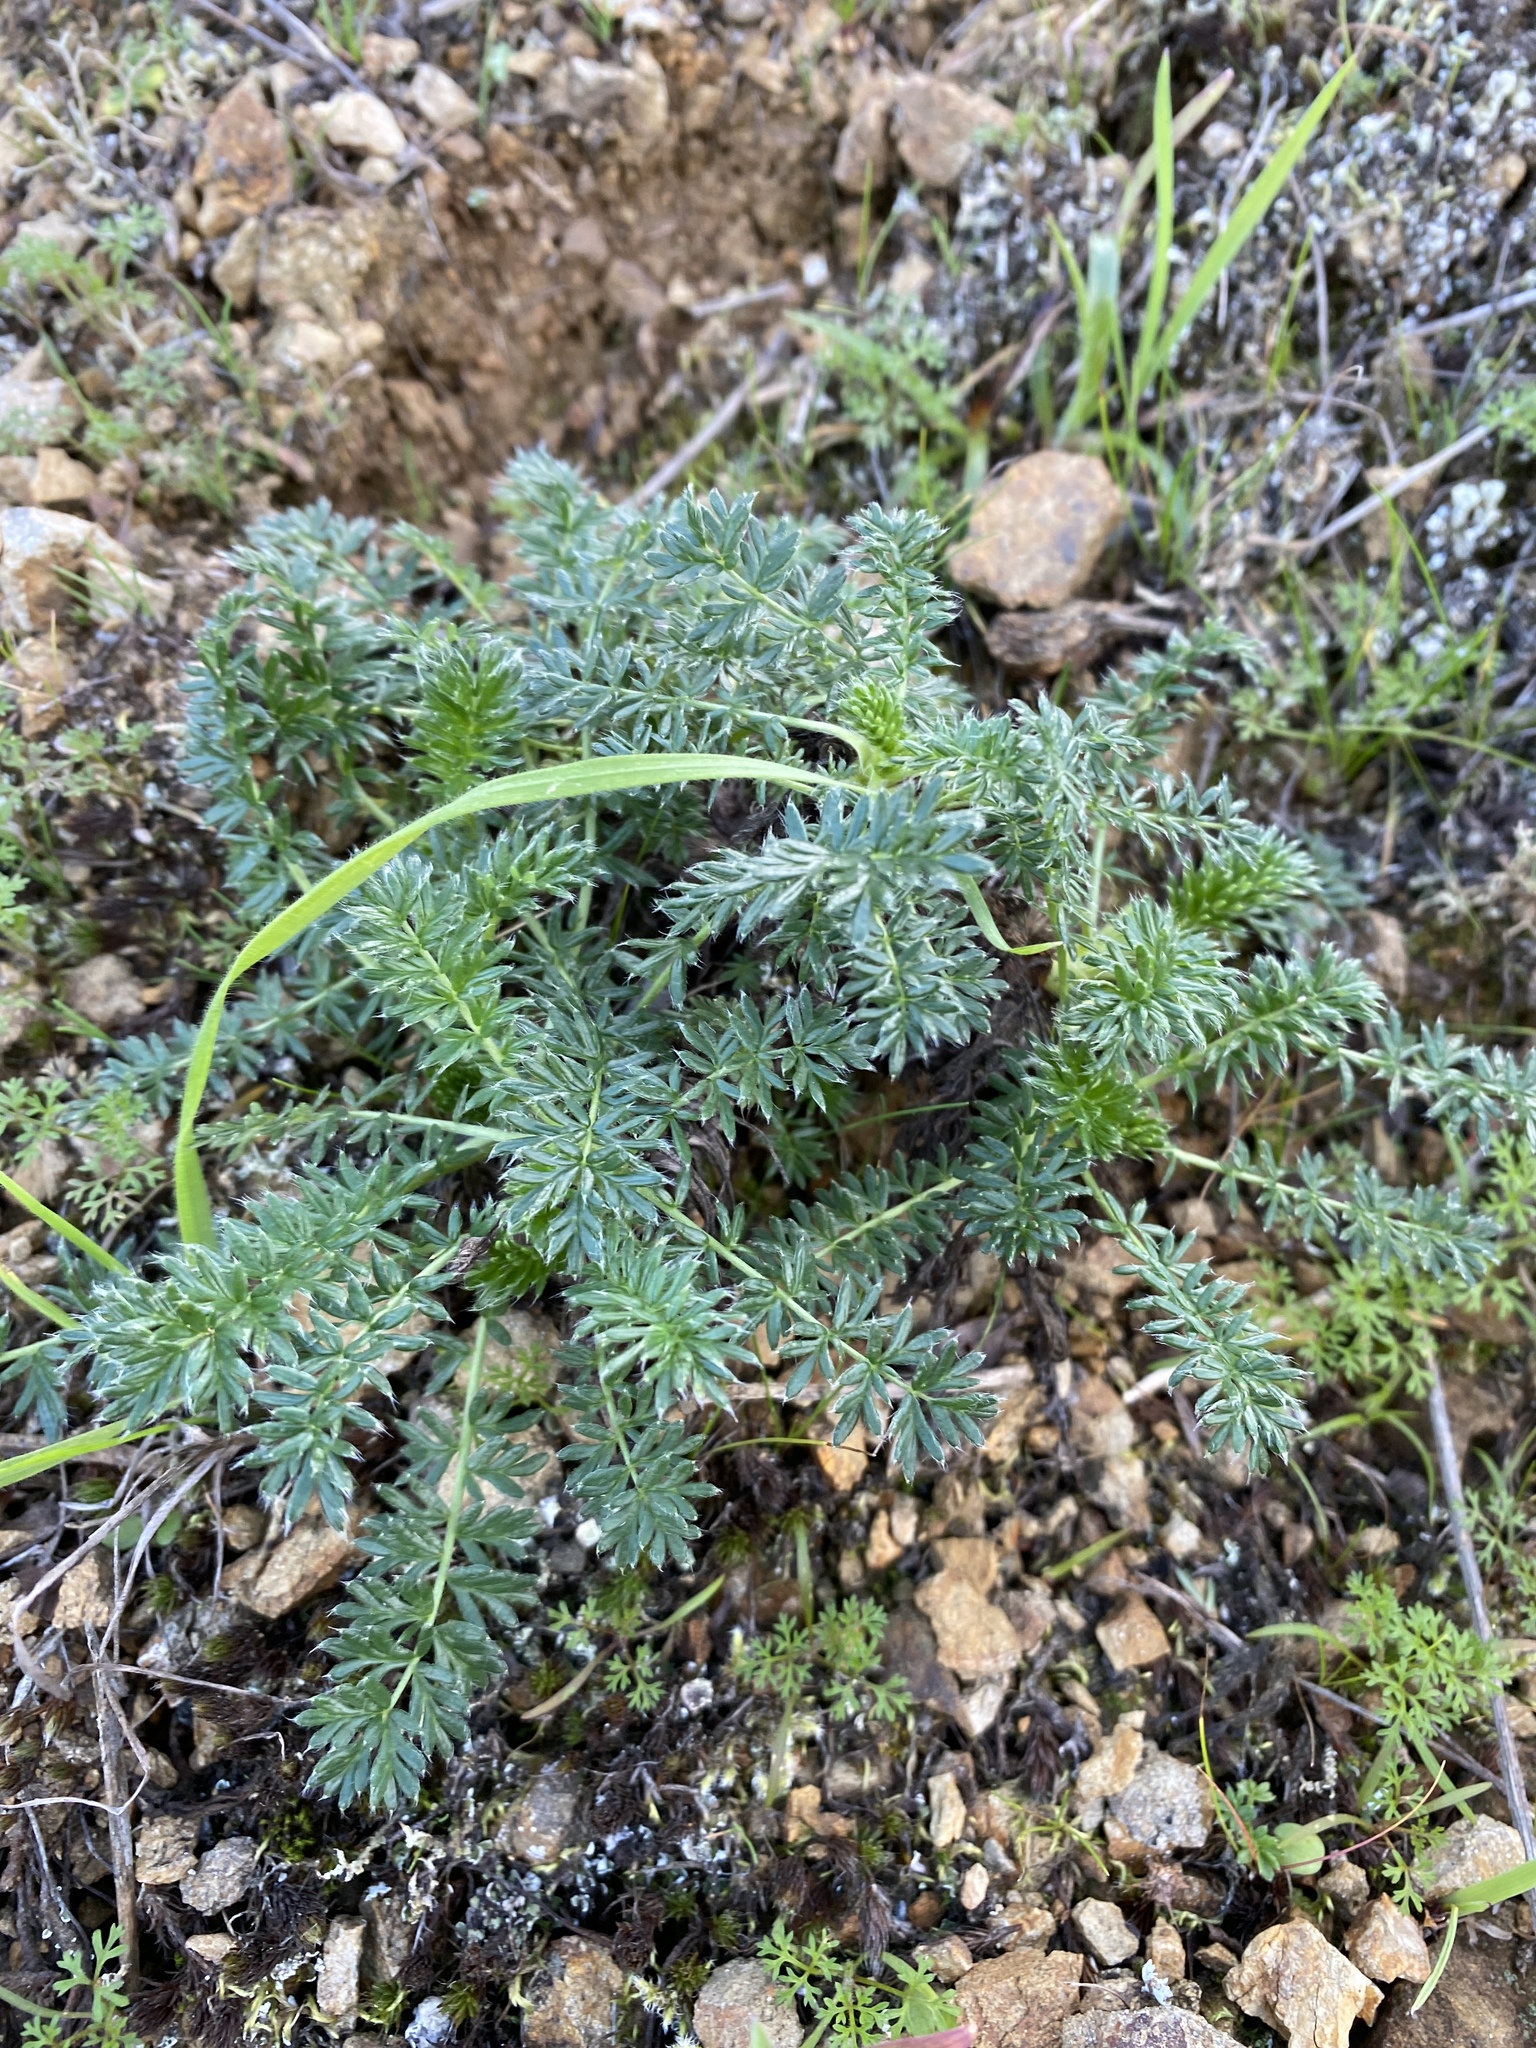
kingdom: Plantae
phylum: Tracheophyta
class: Magnoliopsida
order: Rosales
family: Rosaceae
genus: Acaena
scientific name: Acaena pinnatifida
